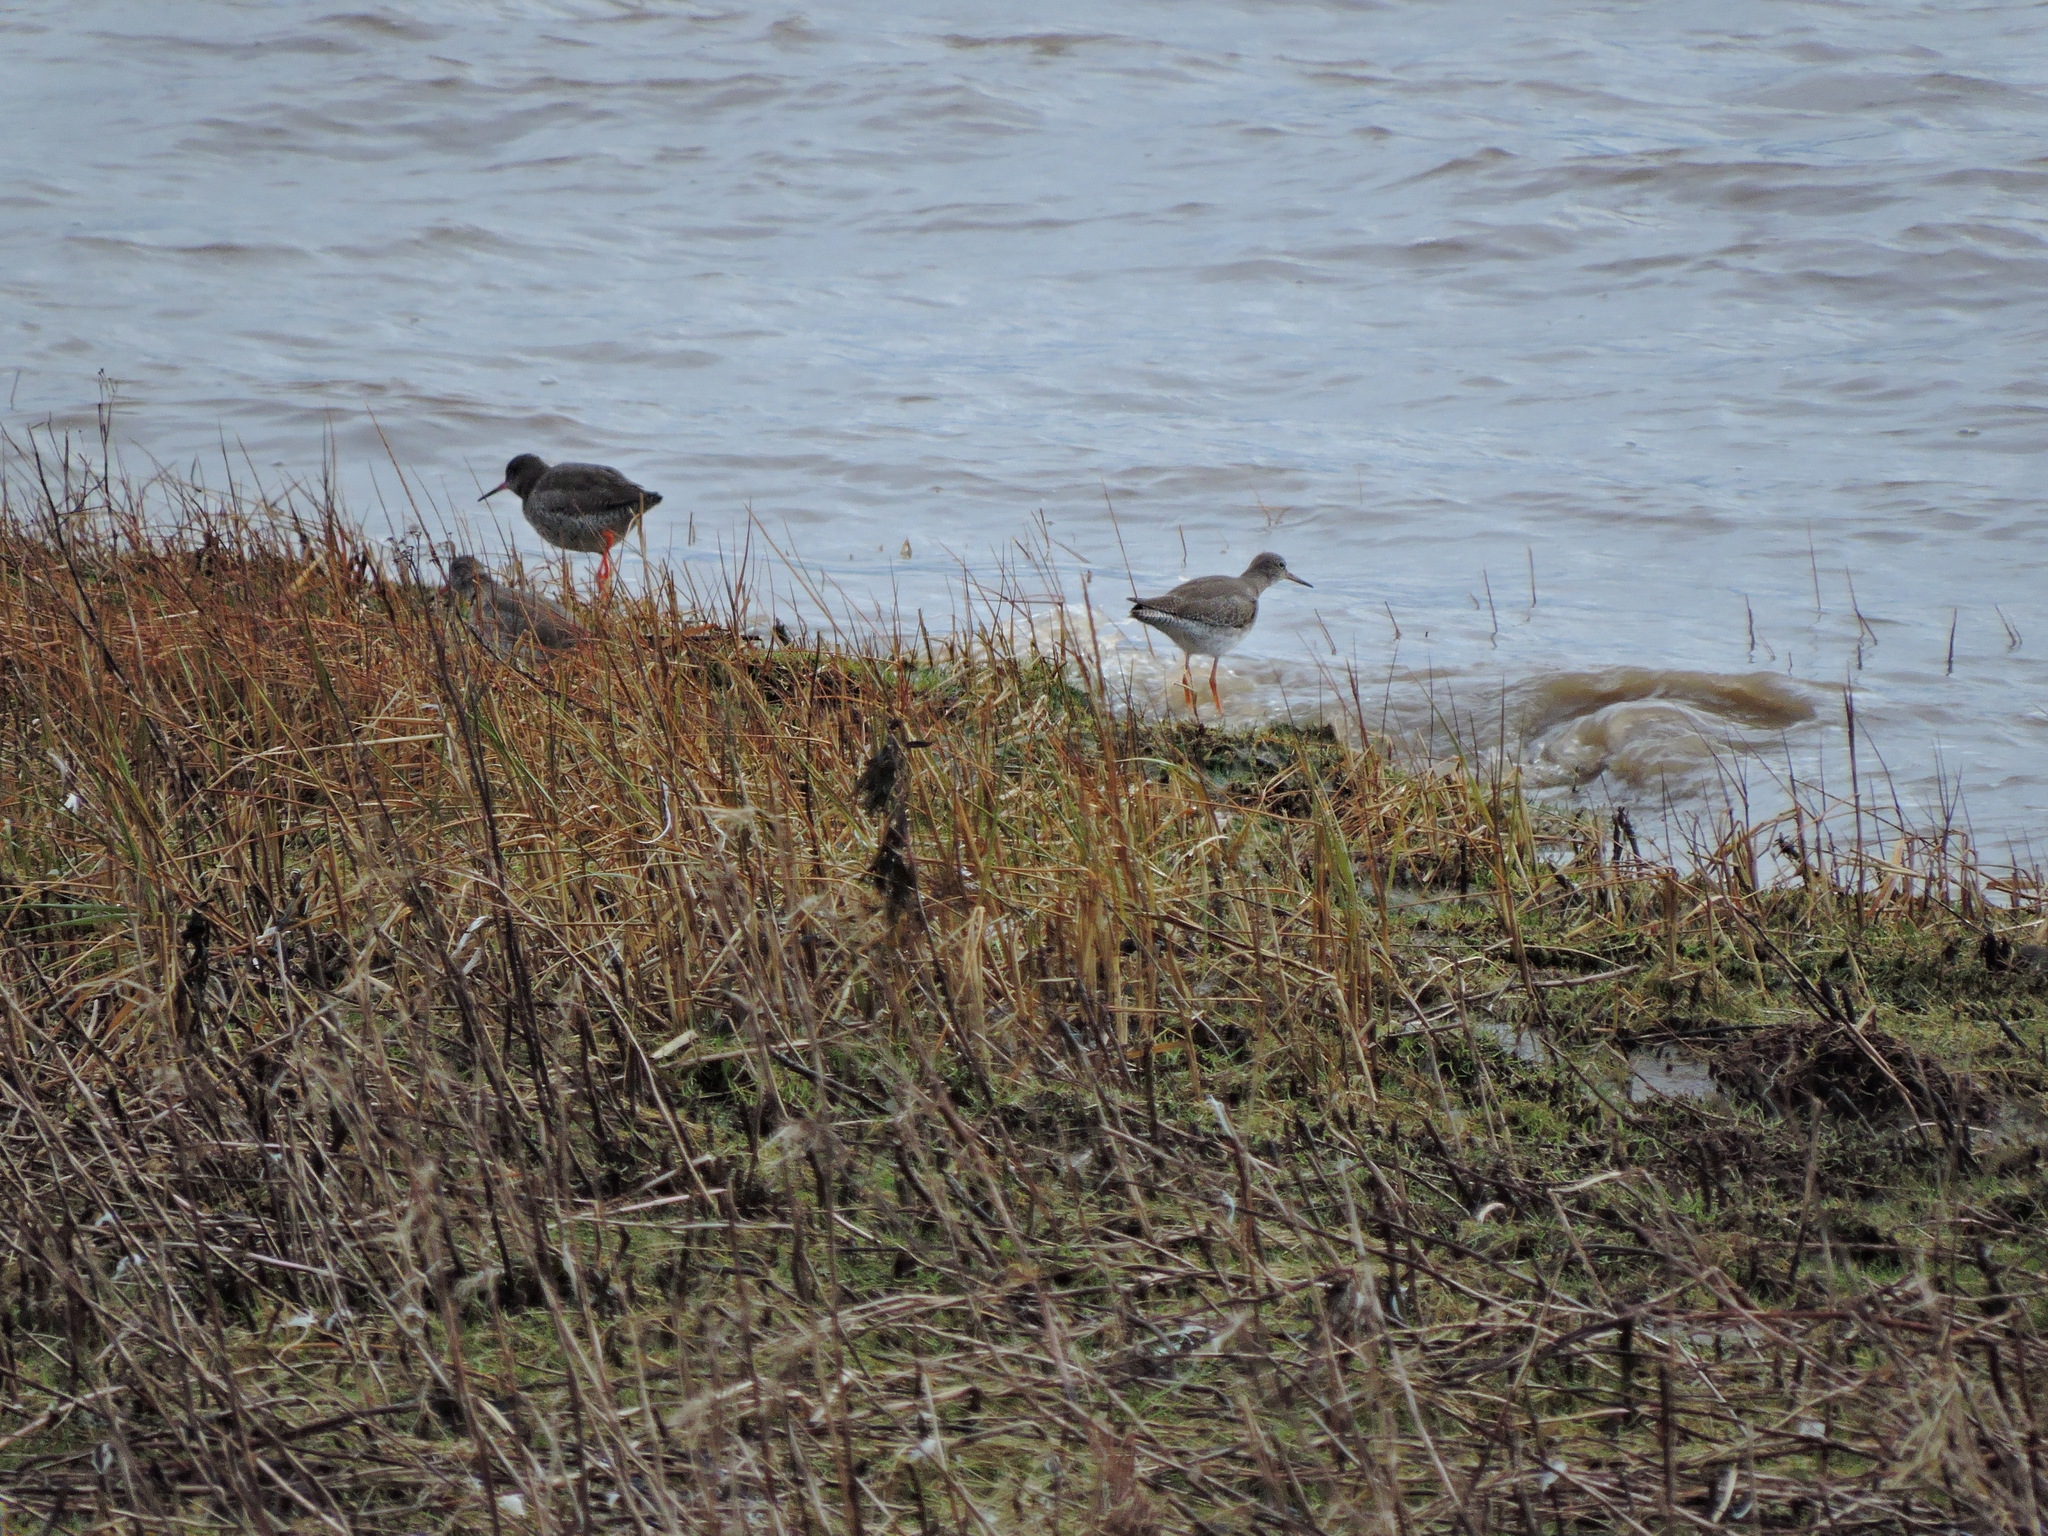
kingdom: Animalia
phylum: Chordata
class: Aves
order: Charadriiformes
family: Scolopacidae
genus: Tringa
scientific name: Tringa totanus
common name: Common redshank
